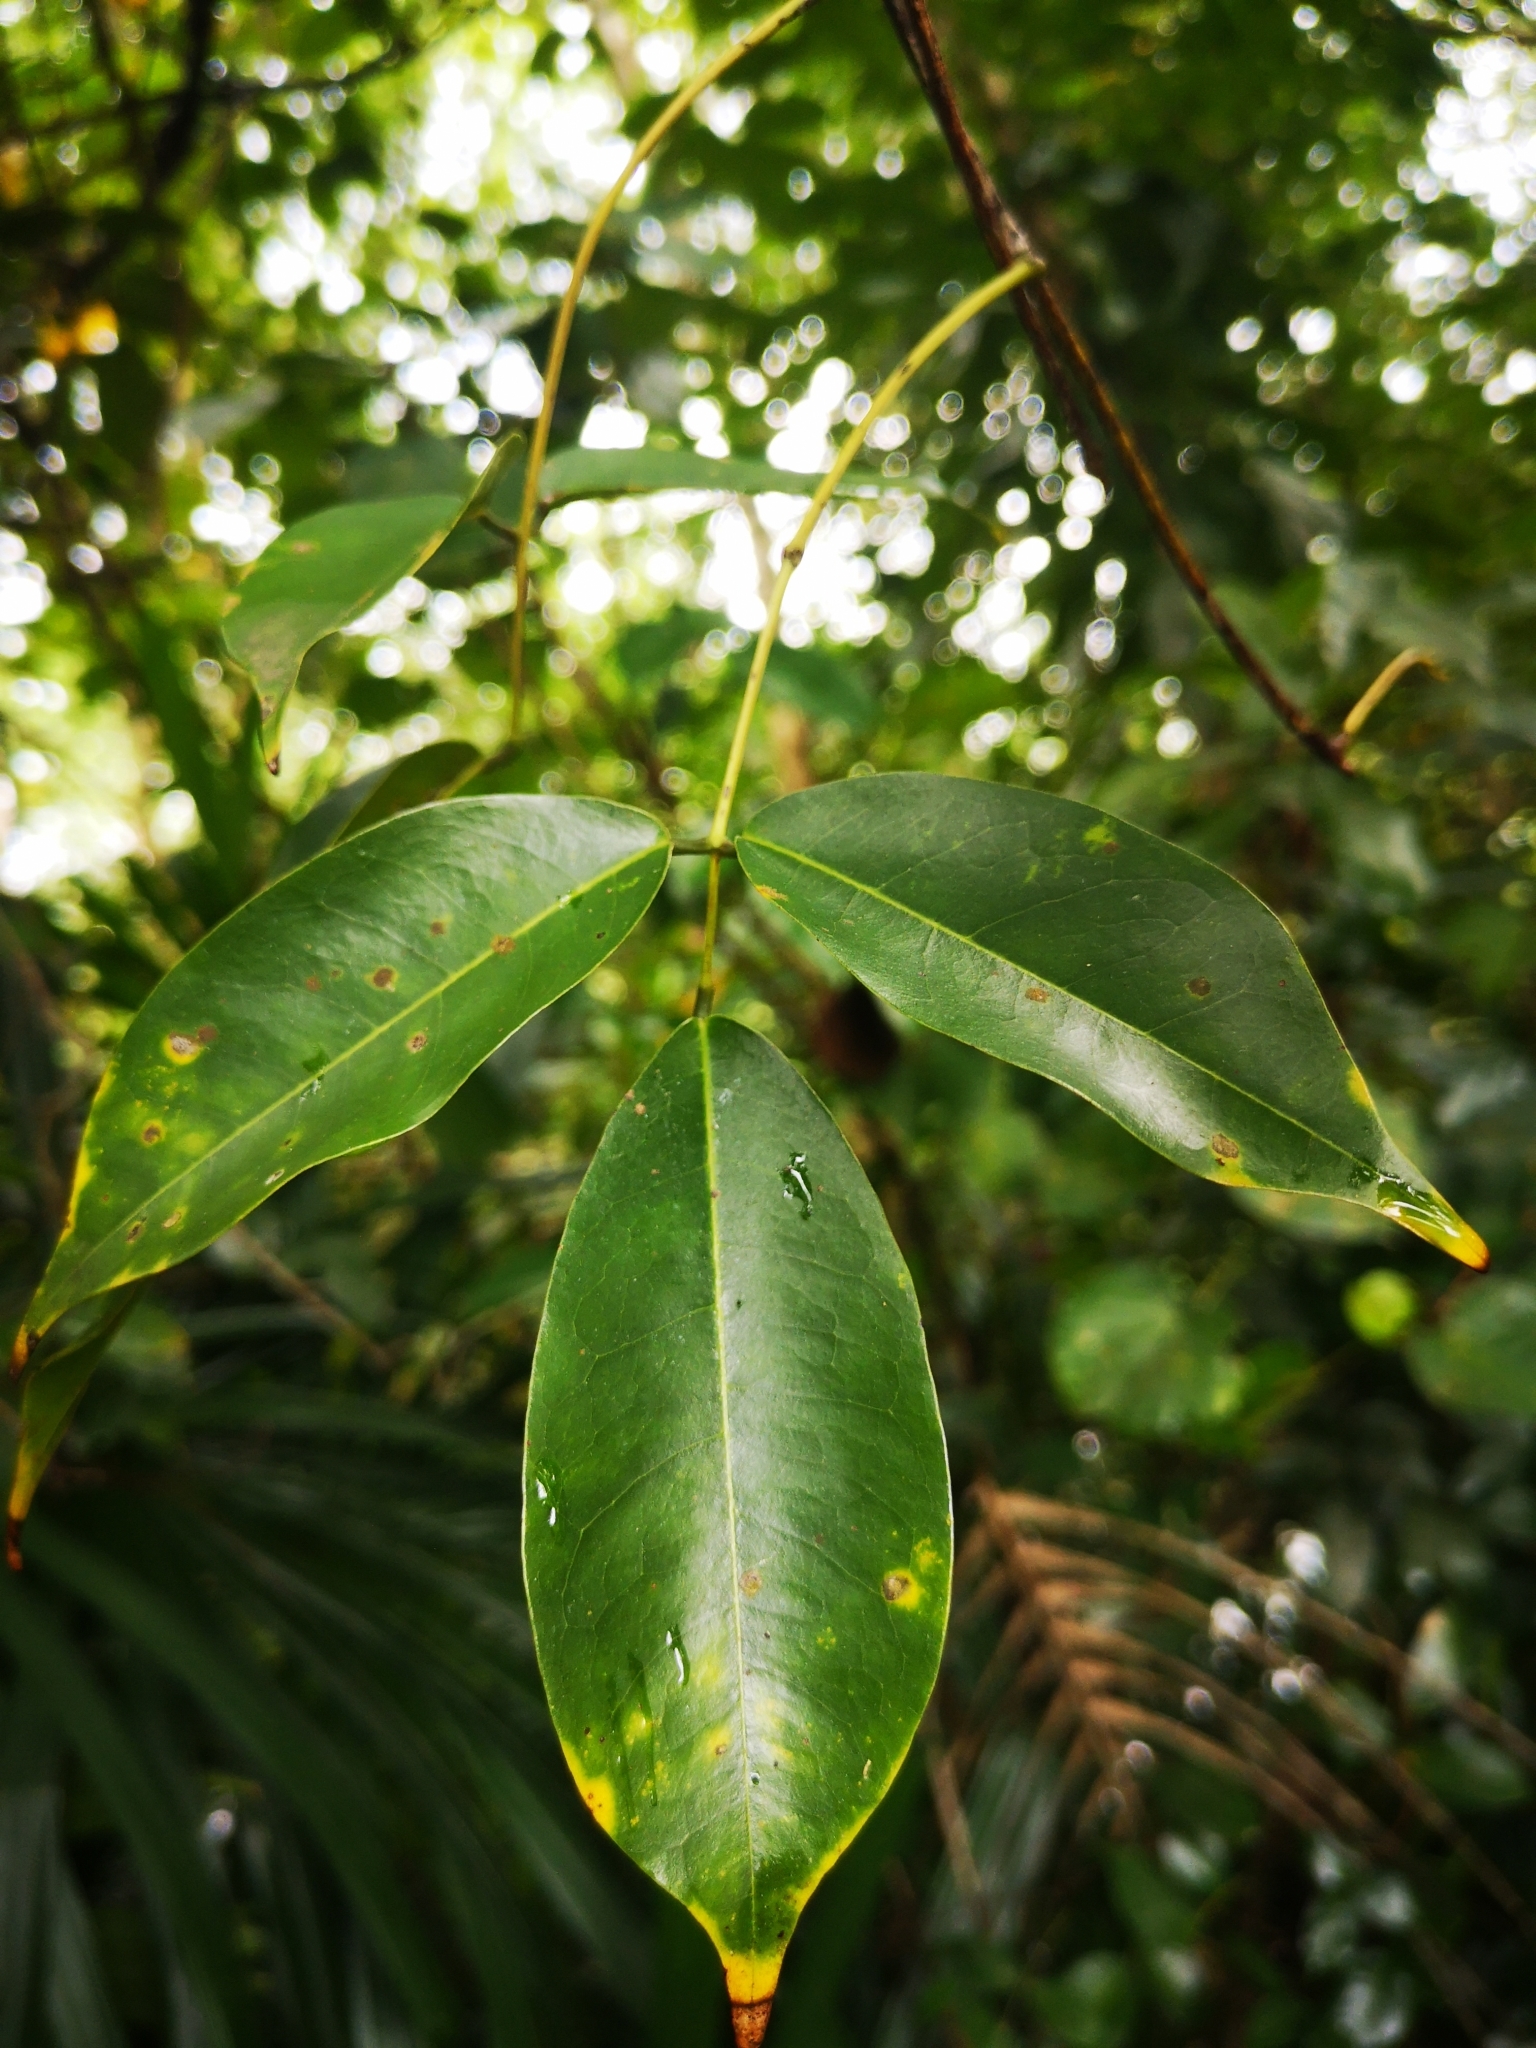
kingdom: Plantae
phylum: Tracheophyta
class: Magnoliopsida
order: Fabales
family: Fabaceae
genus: Derris
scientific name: Derris trifoliata
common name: Three-leaf derris
